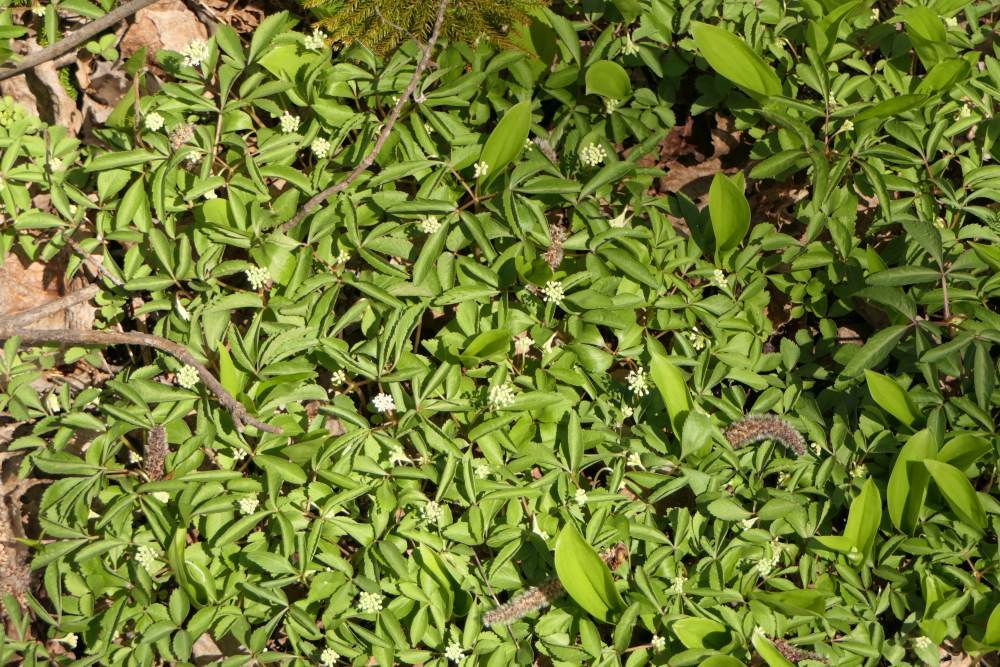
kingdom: Plantae
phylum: Tracheophyta
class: Magnoliopsida
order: Apiales
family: Araliaceae
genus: Panax
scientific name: Panax trifolius
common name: Dwarf ginseng
